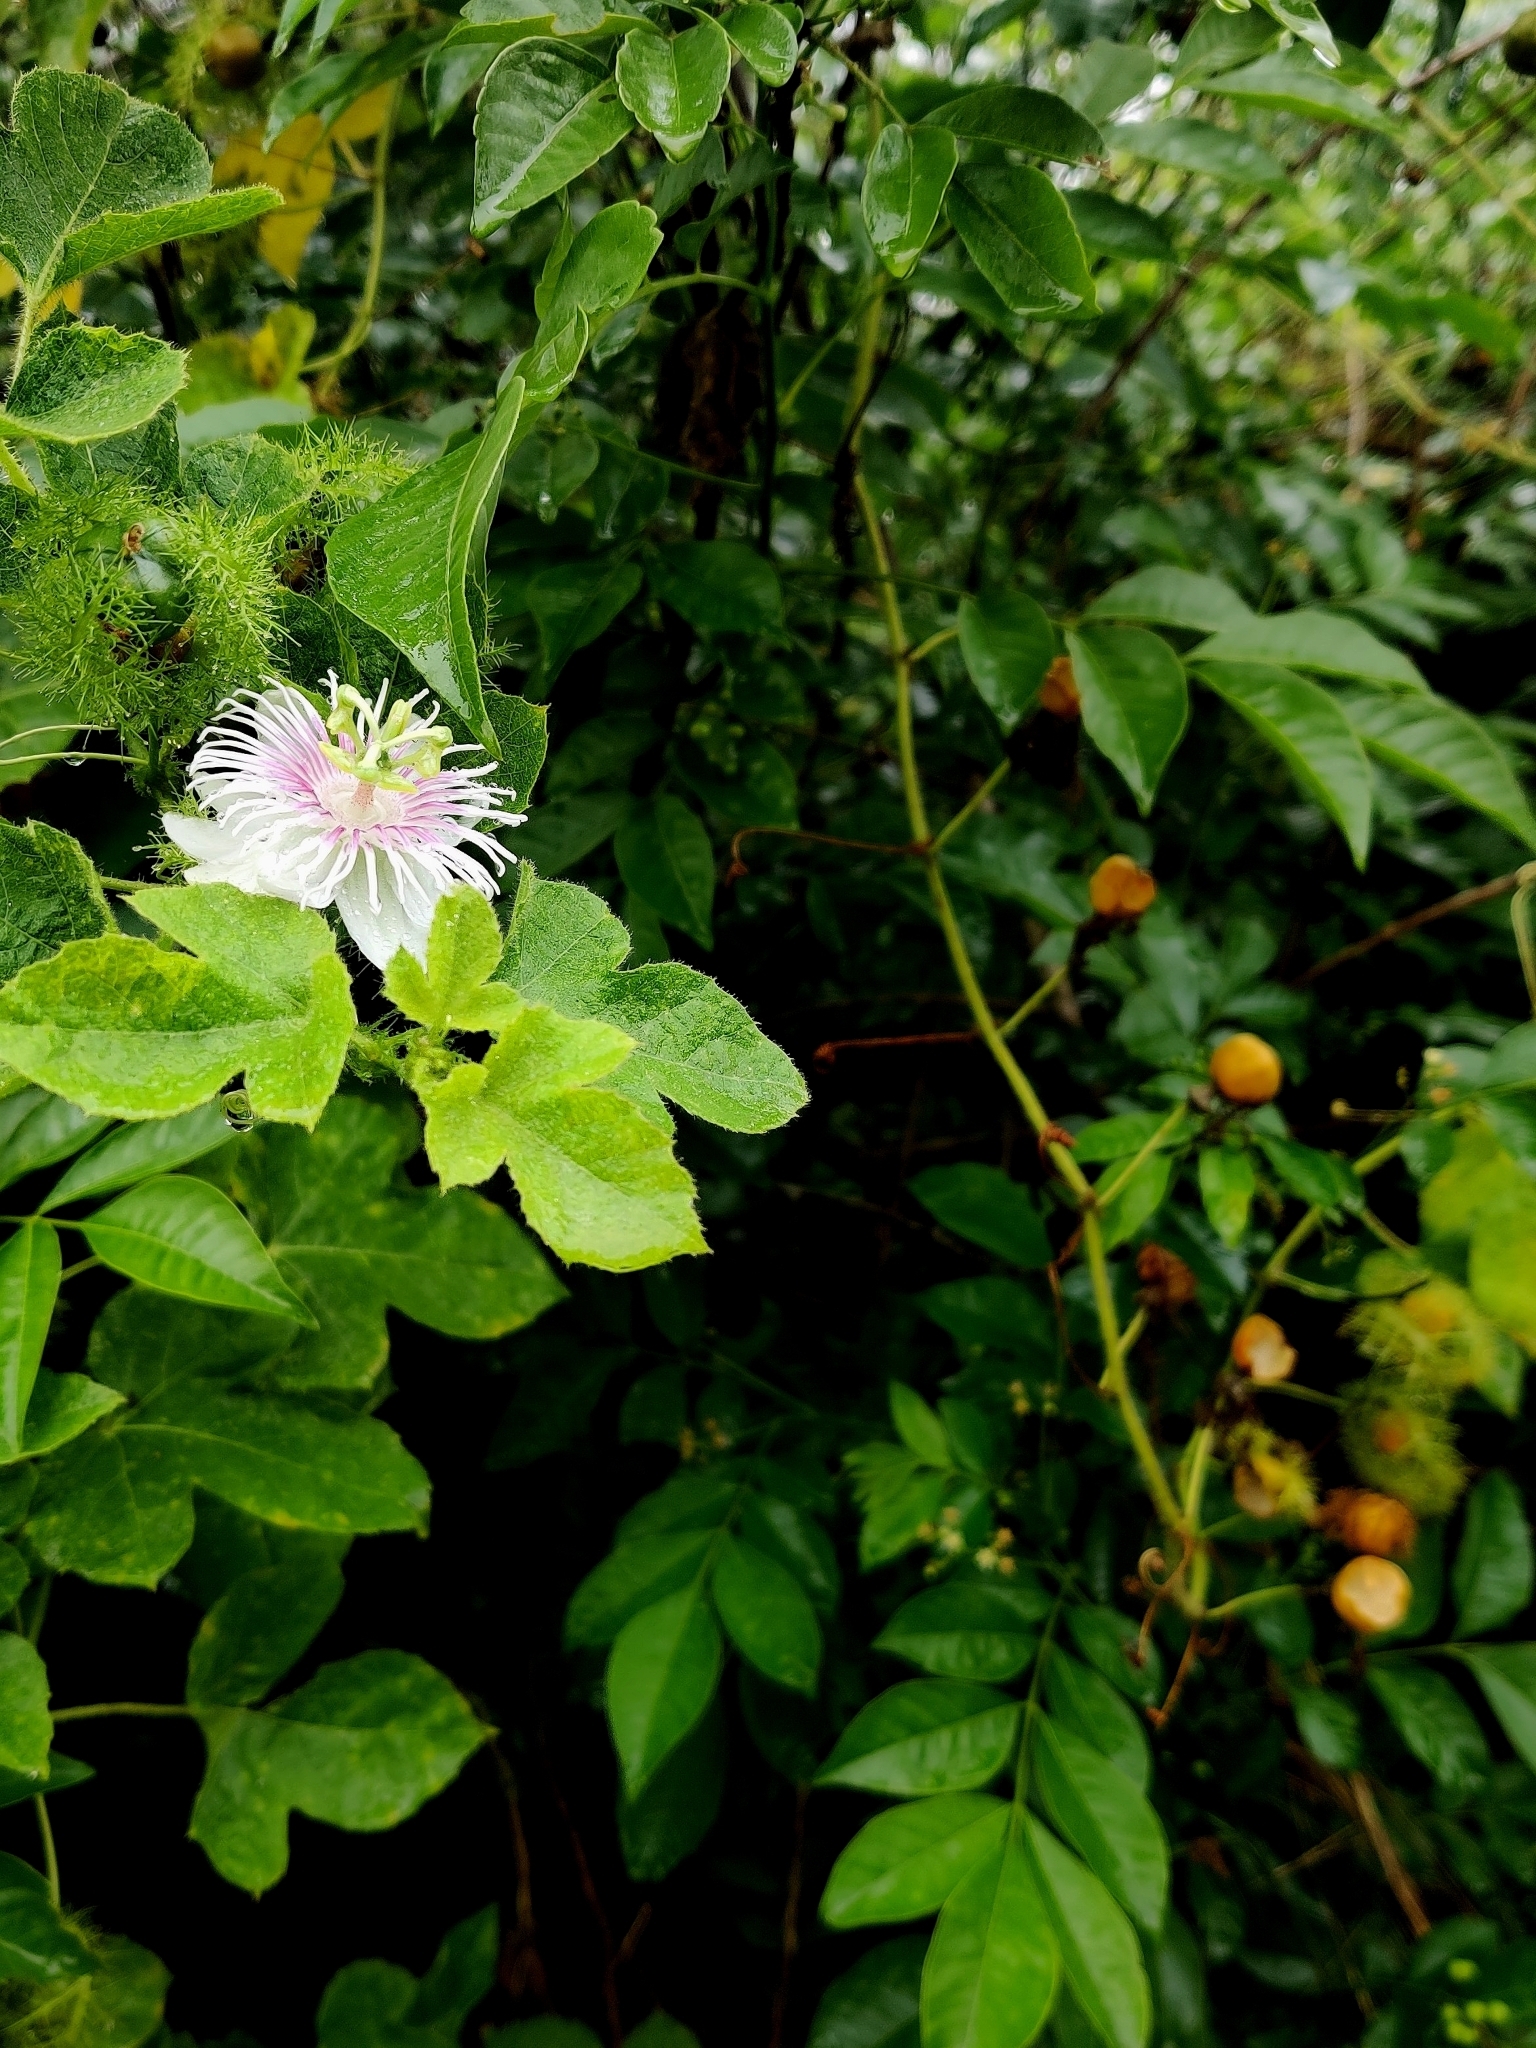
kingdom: Plantae
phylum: Tracheophyta
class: Magnoliopsida
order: Malpighiales
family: Passifloraceae
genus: Passiflora
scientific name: Passiflora foetida
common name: Fetid passionflower
